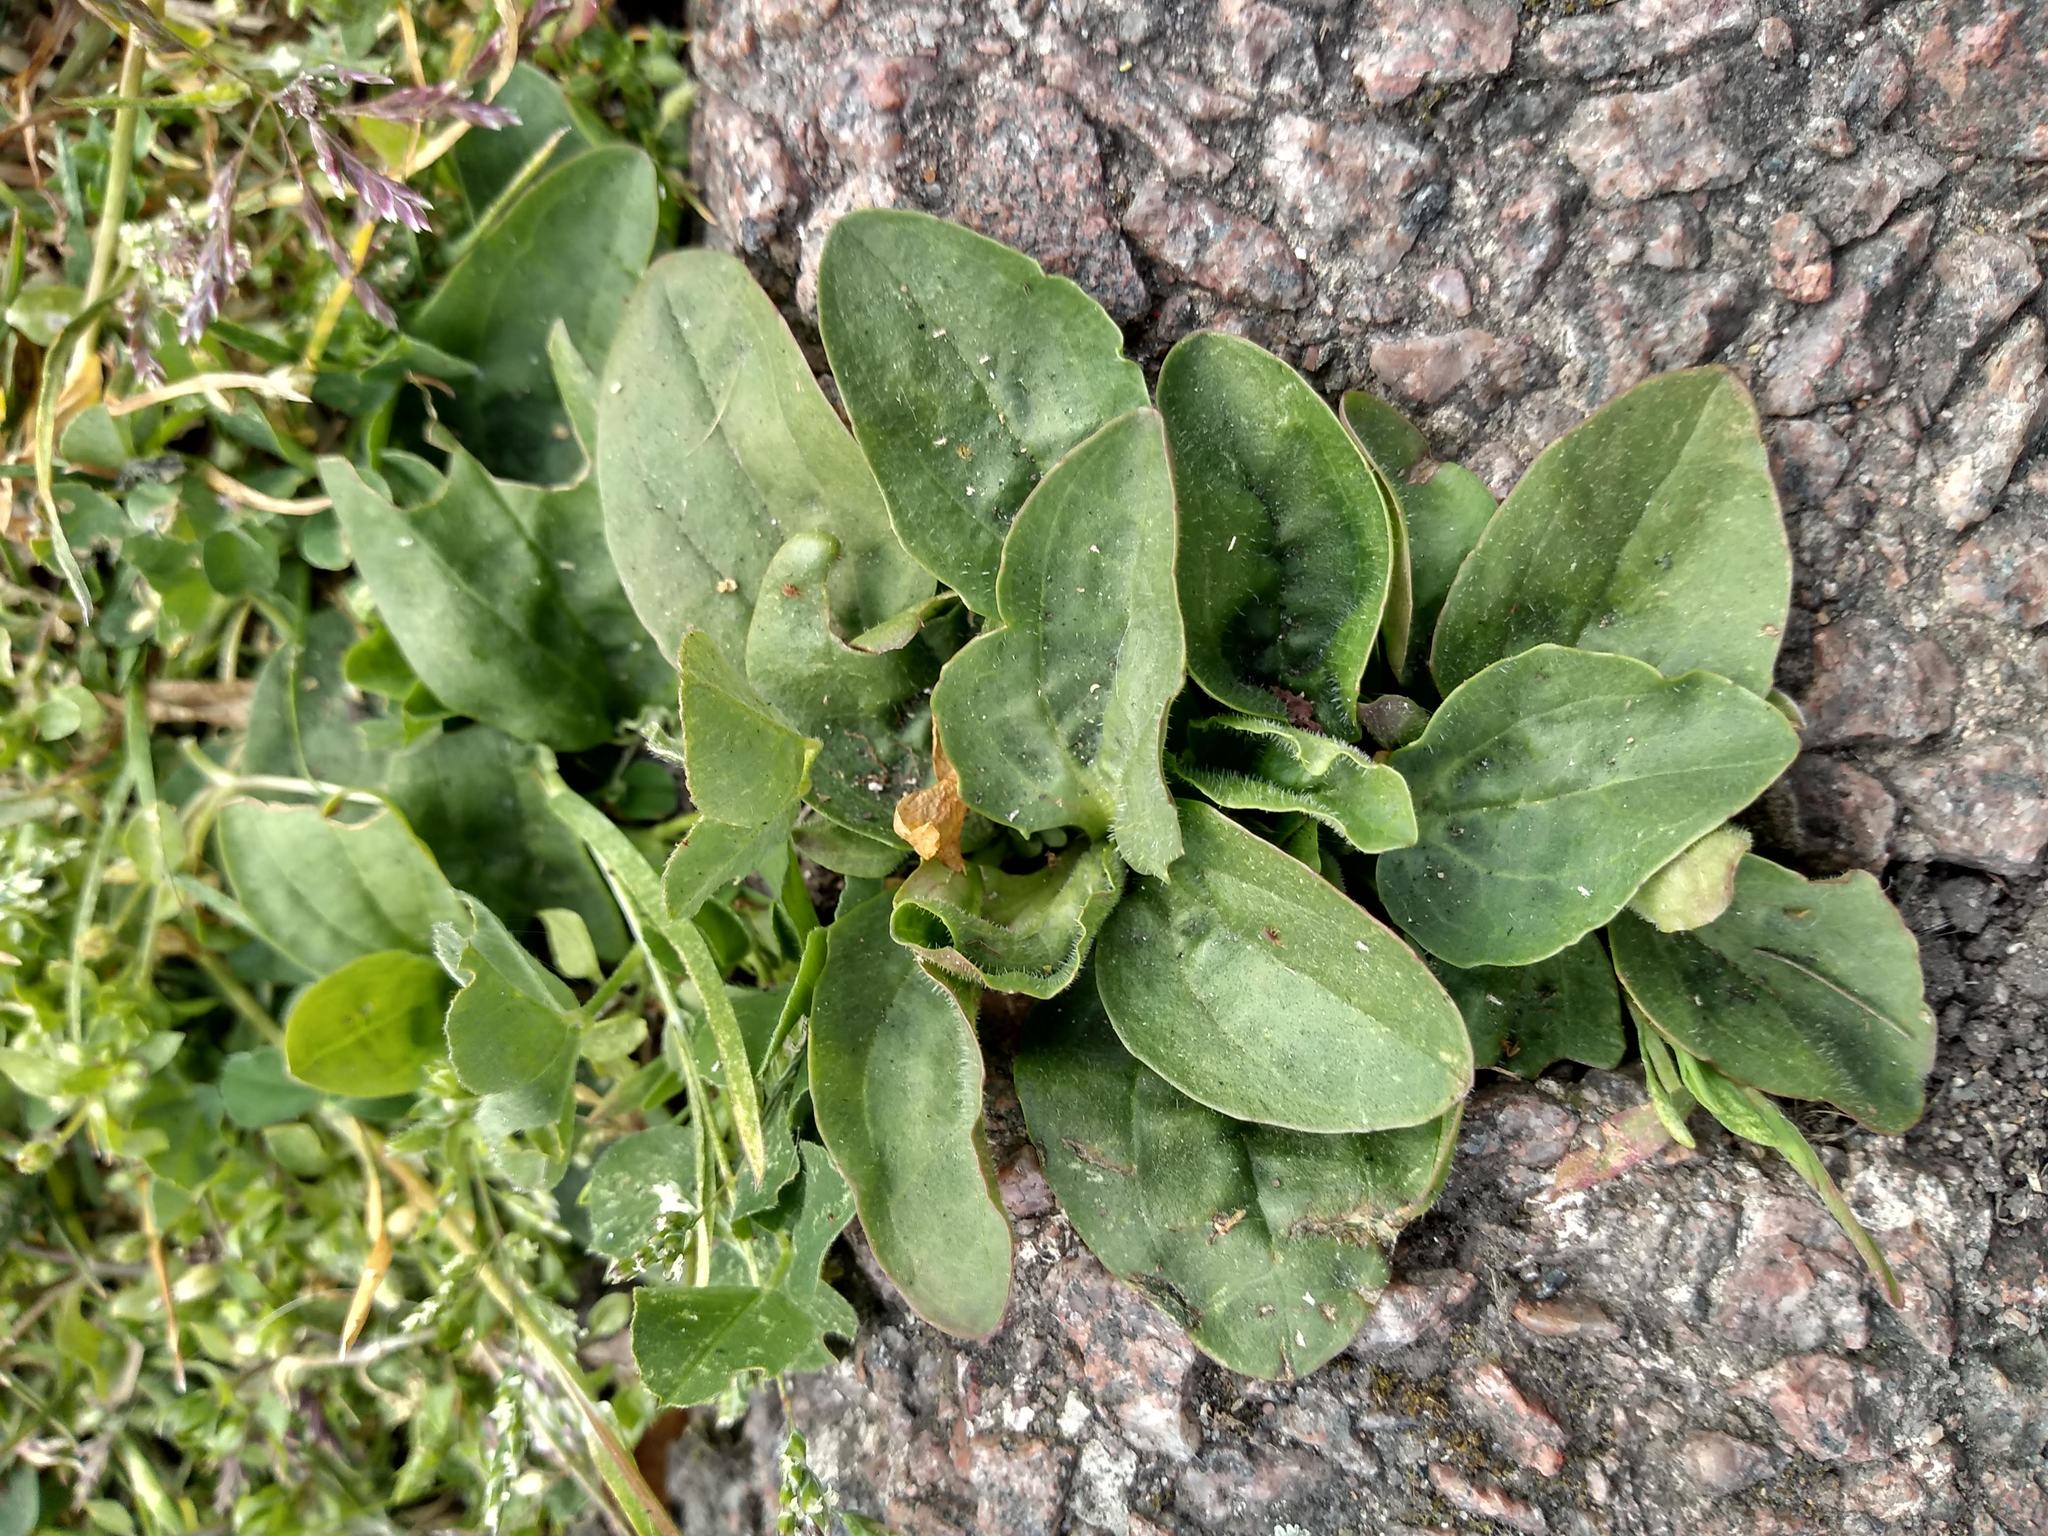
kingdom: Plantae
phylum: Tracheophyta
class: Magnoliopsida
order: Lamiales
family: Plantaginaceae
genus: Plantago
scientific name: Plantago major
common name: Common plantain
